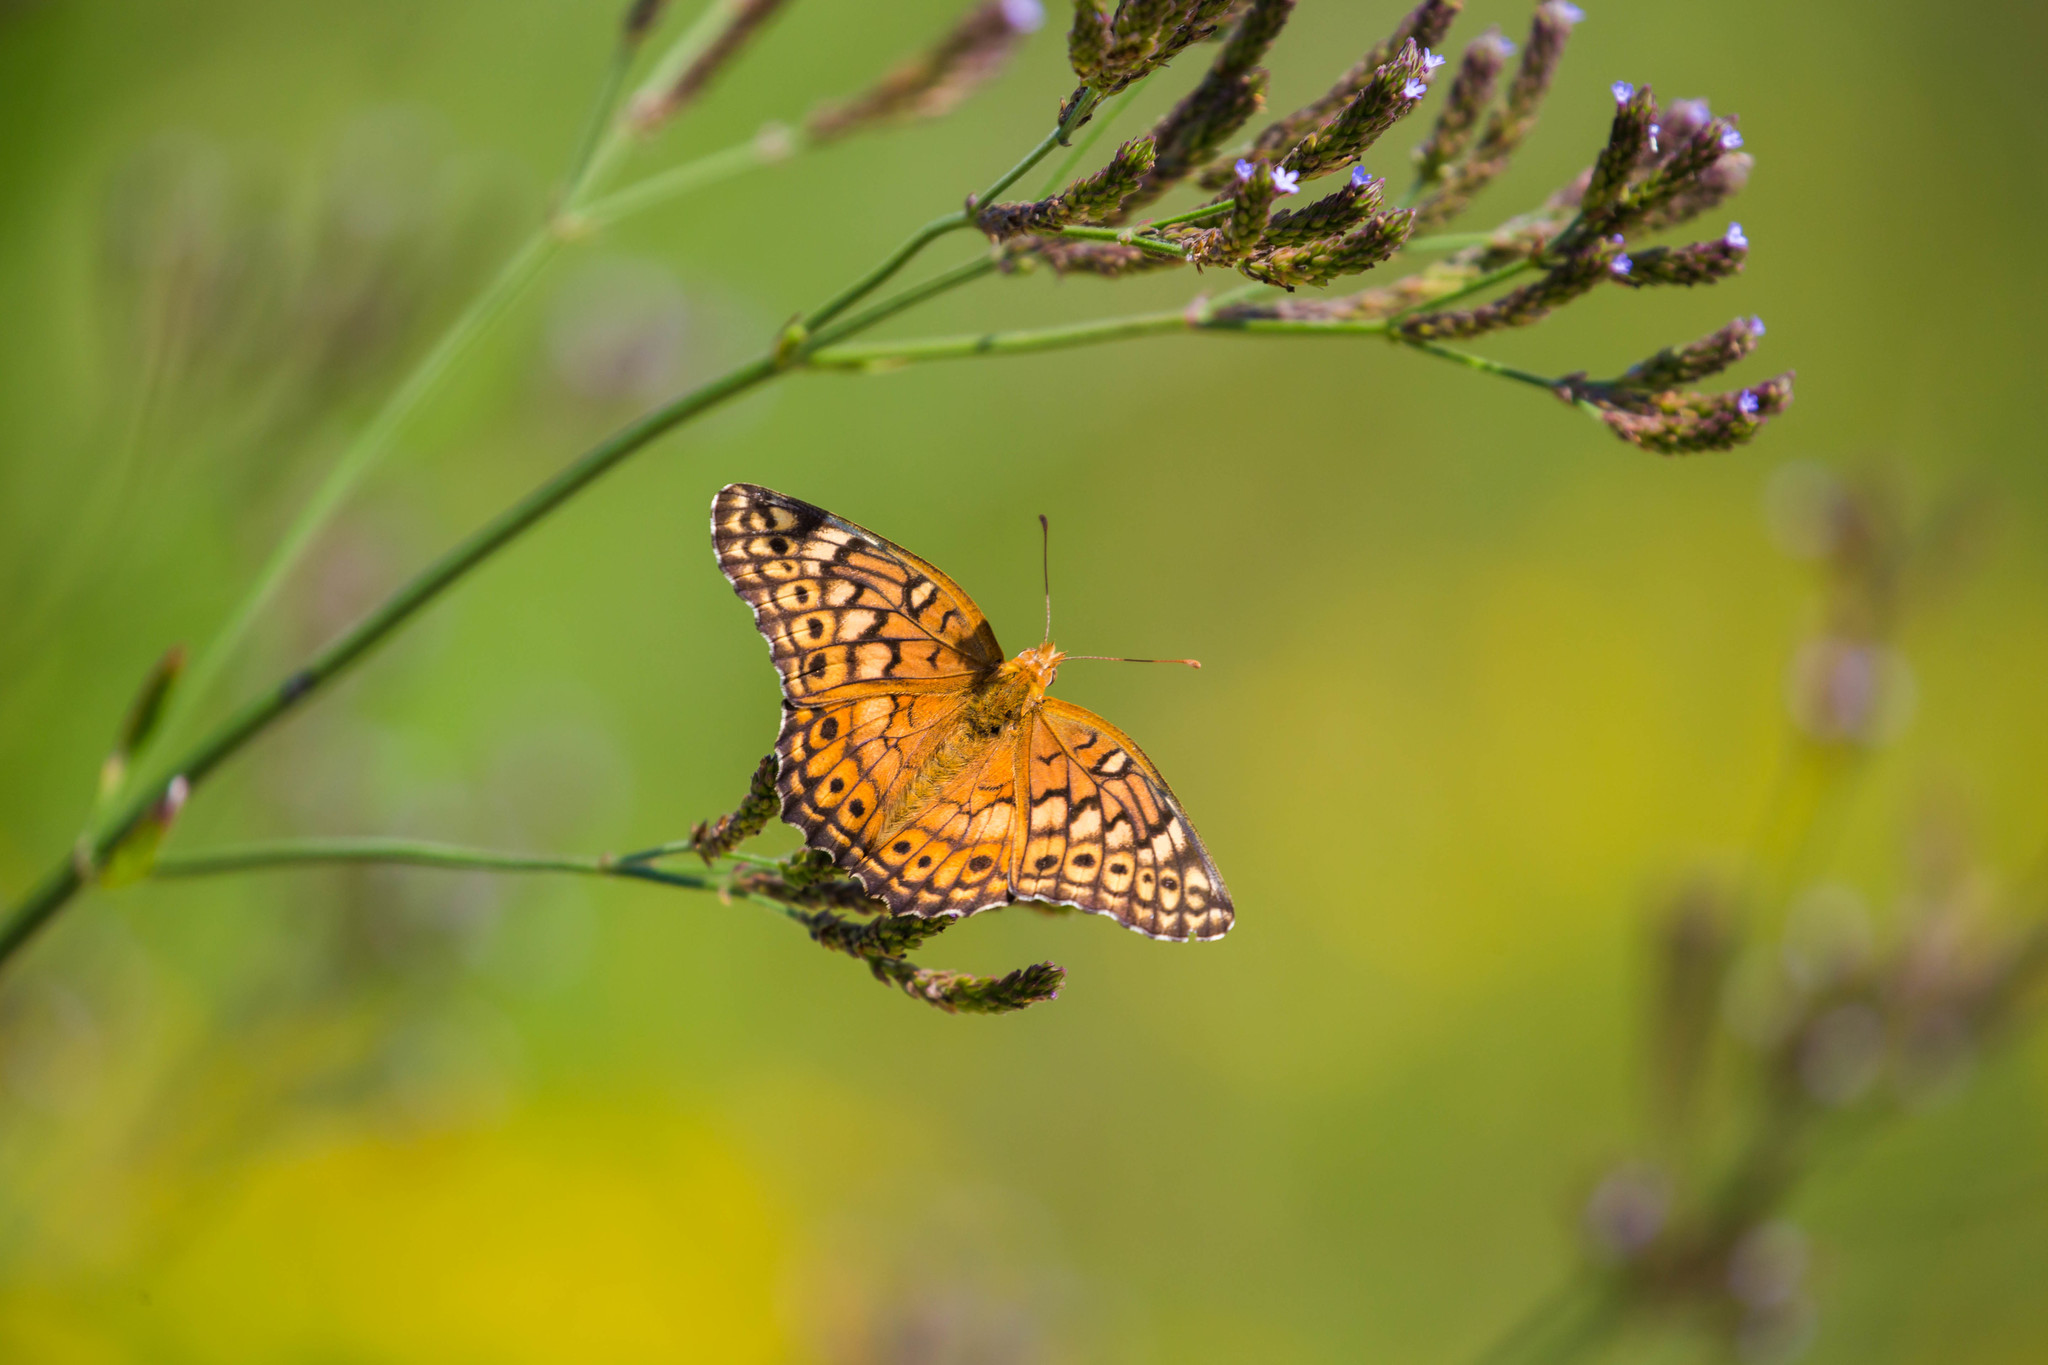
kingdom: Animalia
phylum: Arthropoda
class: Insecta
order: Lepidoptera
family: Nymphalidae
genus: Euptoieta
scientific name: Euptoieta claudia
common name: Variegated fritillary
